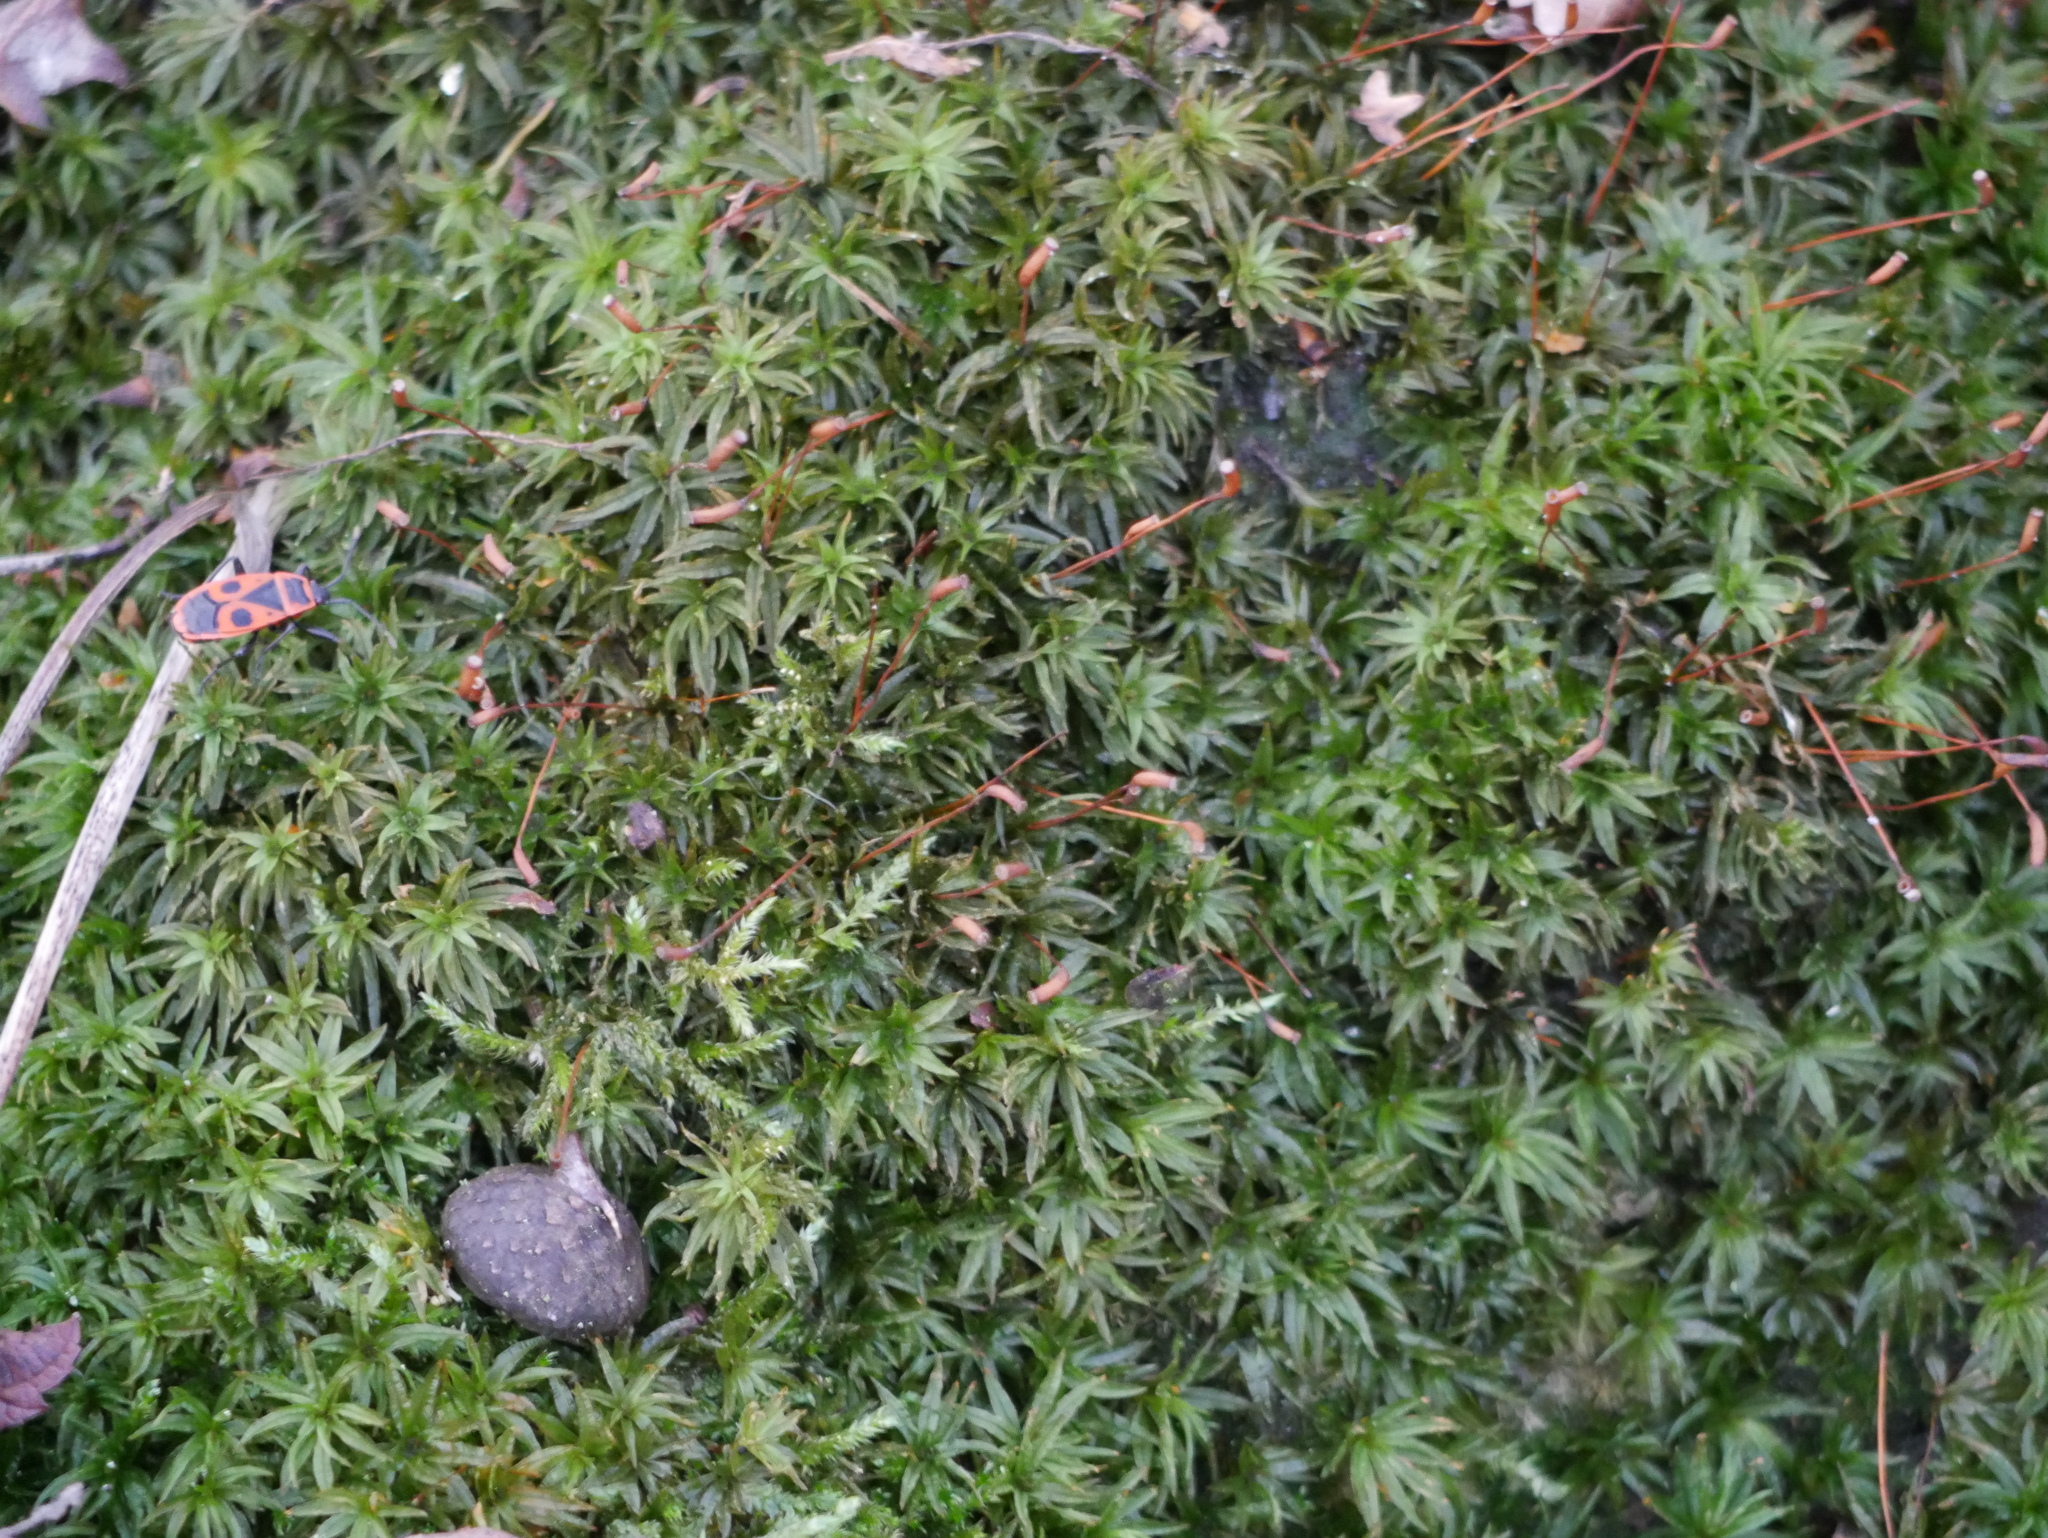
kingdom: Plantae
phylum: Bryophyta
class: Polytrichopsida
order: Polytrichales
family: Polytrichaceae
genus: Atrichum
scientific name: Atrichum undulatum
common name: Common smoothcap
